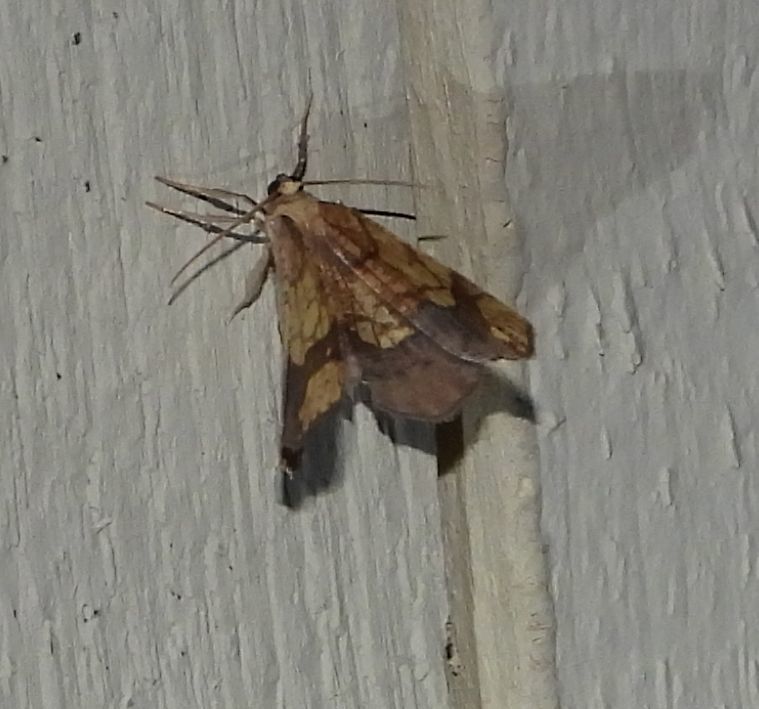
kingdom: Animalia
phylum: Arthropoda
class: Insecta
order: Lepidoptera
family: Geometridae
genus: Nematocampa
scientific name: Nematocampa resistaria
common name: Horned spanworm moth
